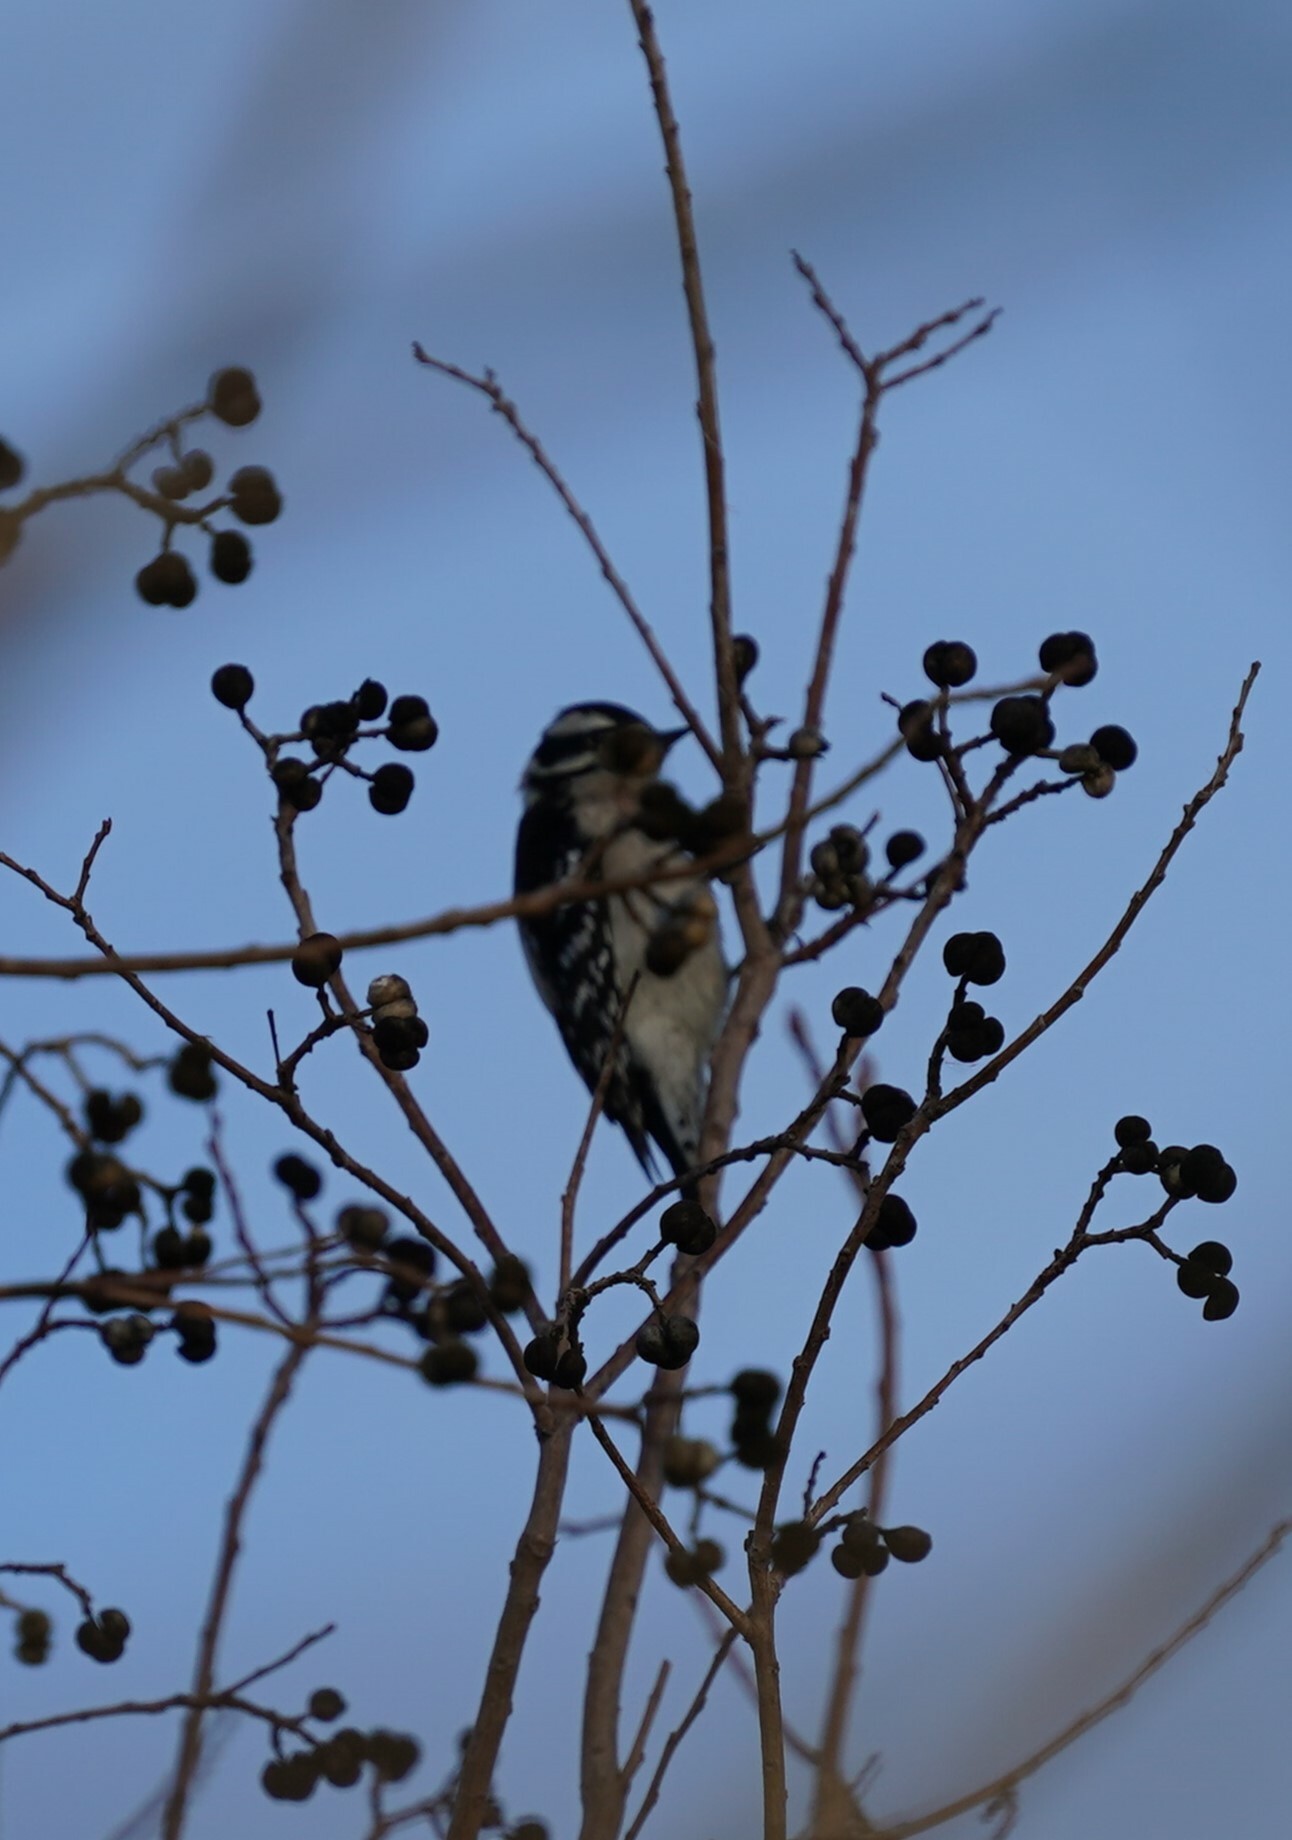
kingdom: Animalia
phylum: Chordata
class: Aves
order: Piciformes
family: Picidae
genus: Dryobates
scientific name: Dryobates pubescens
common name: Downy woodpecker
